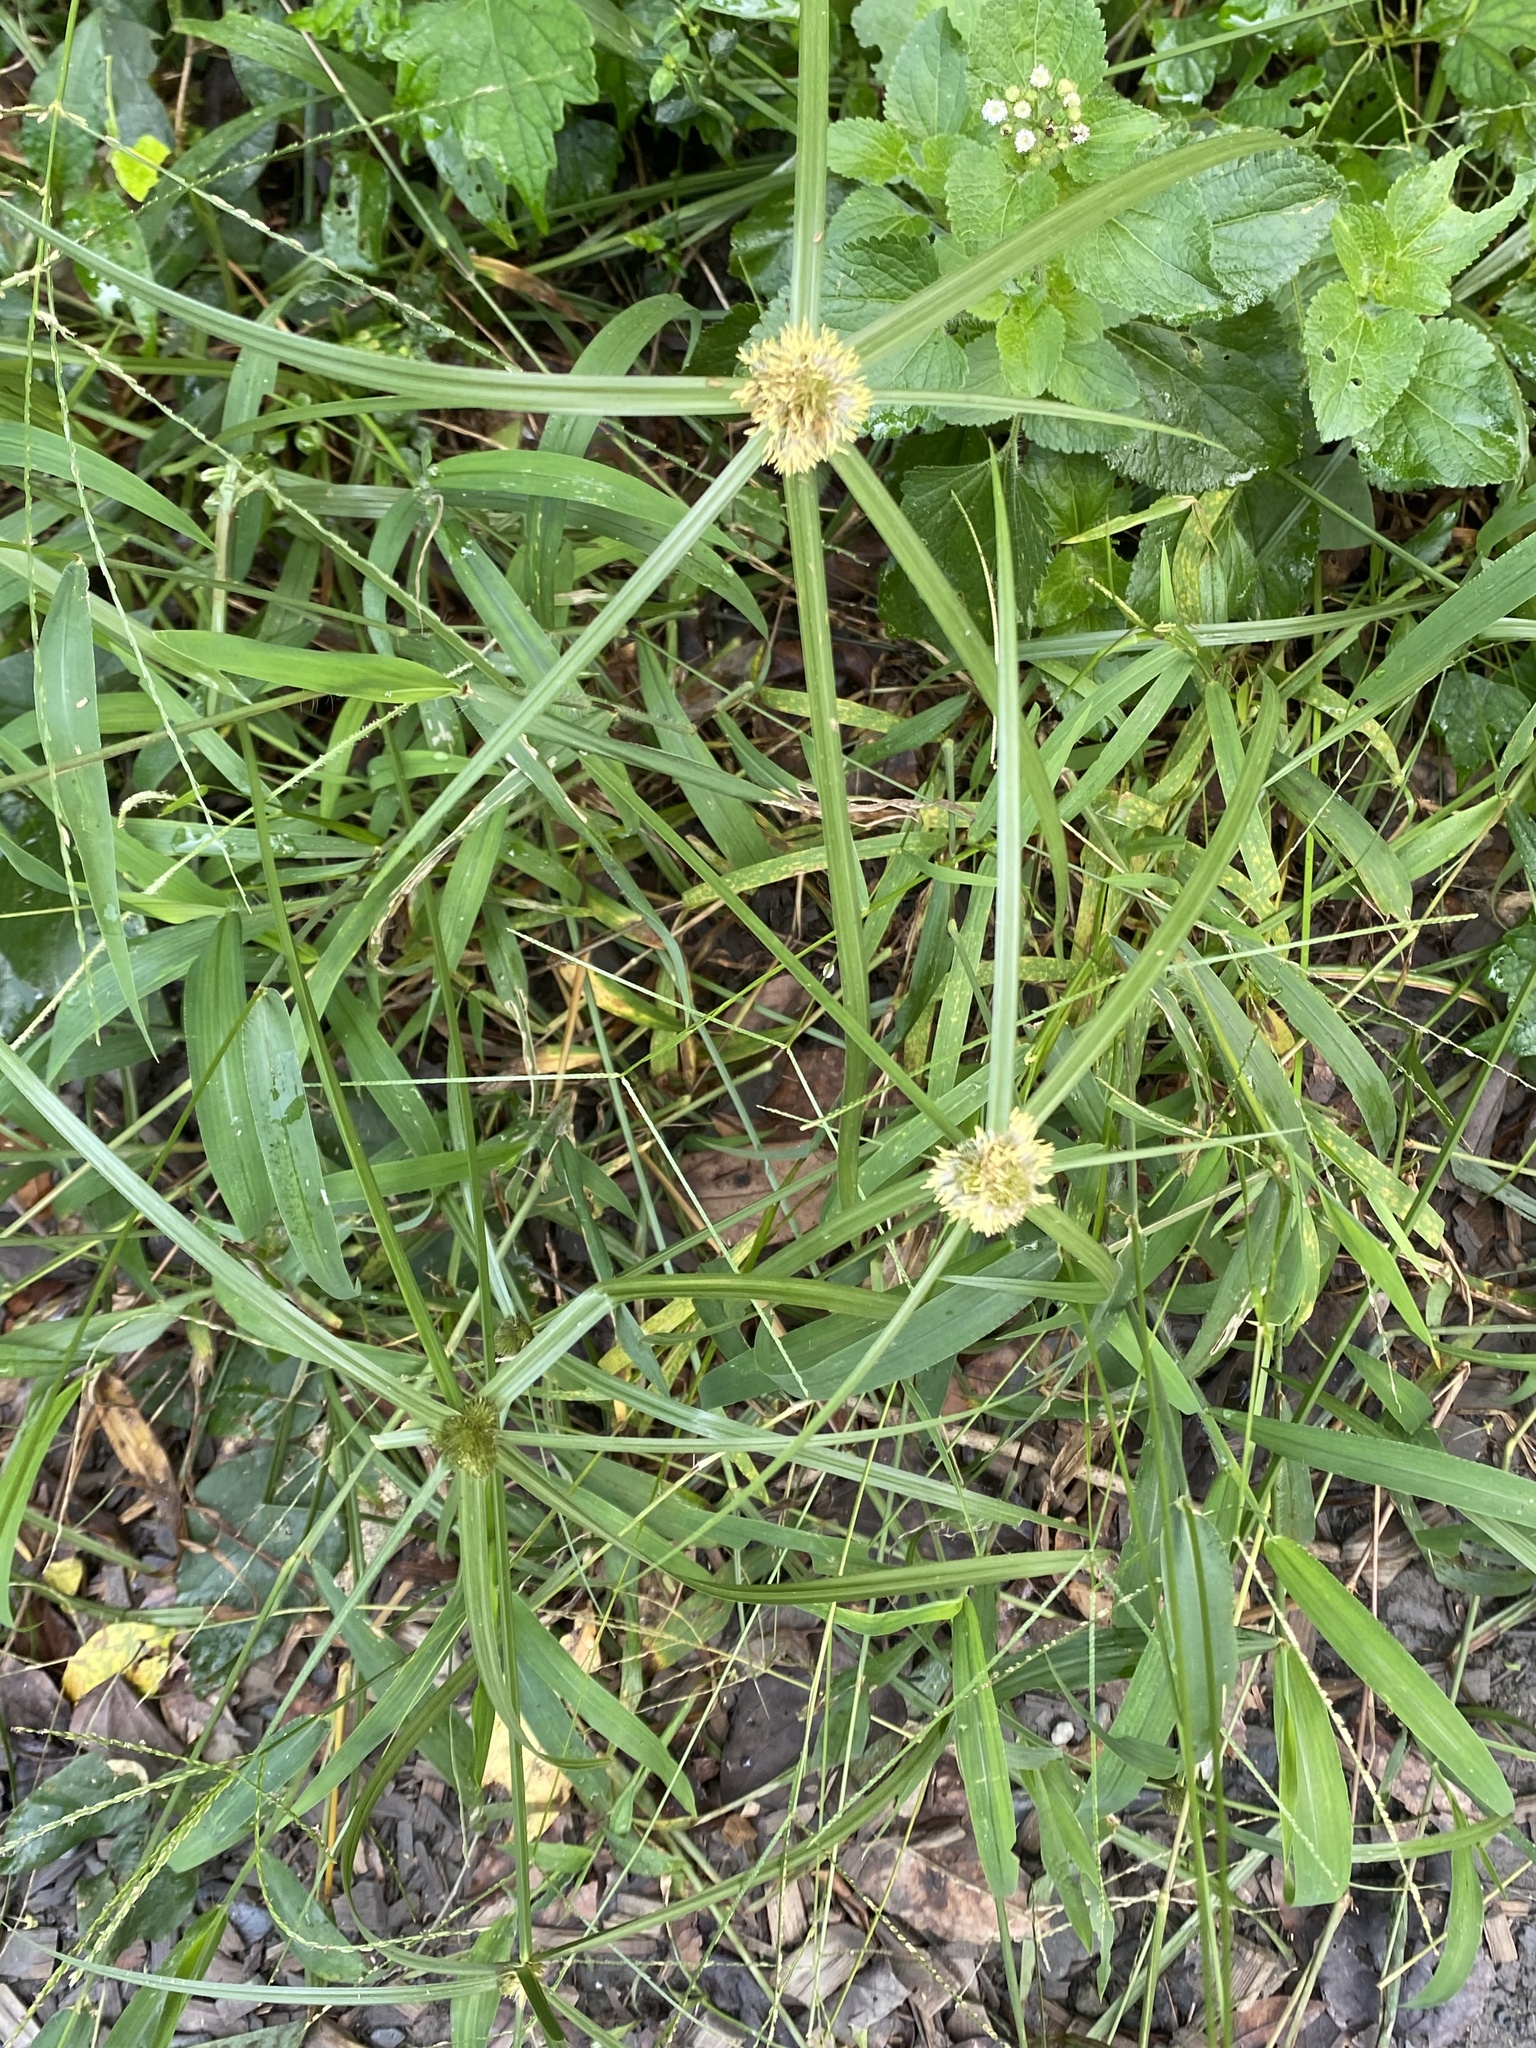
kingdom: Plantae
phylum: Tracheophyta
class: Liliopsida
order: Poales
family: Cyperaceae
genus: Cyperus
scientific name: Cyperus brevifolius
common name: Globe kyllinga
